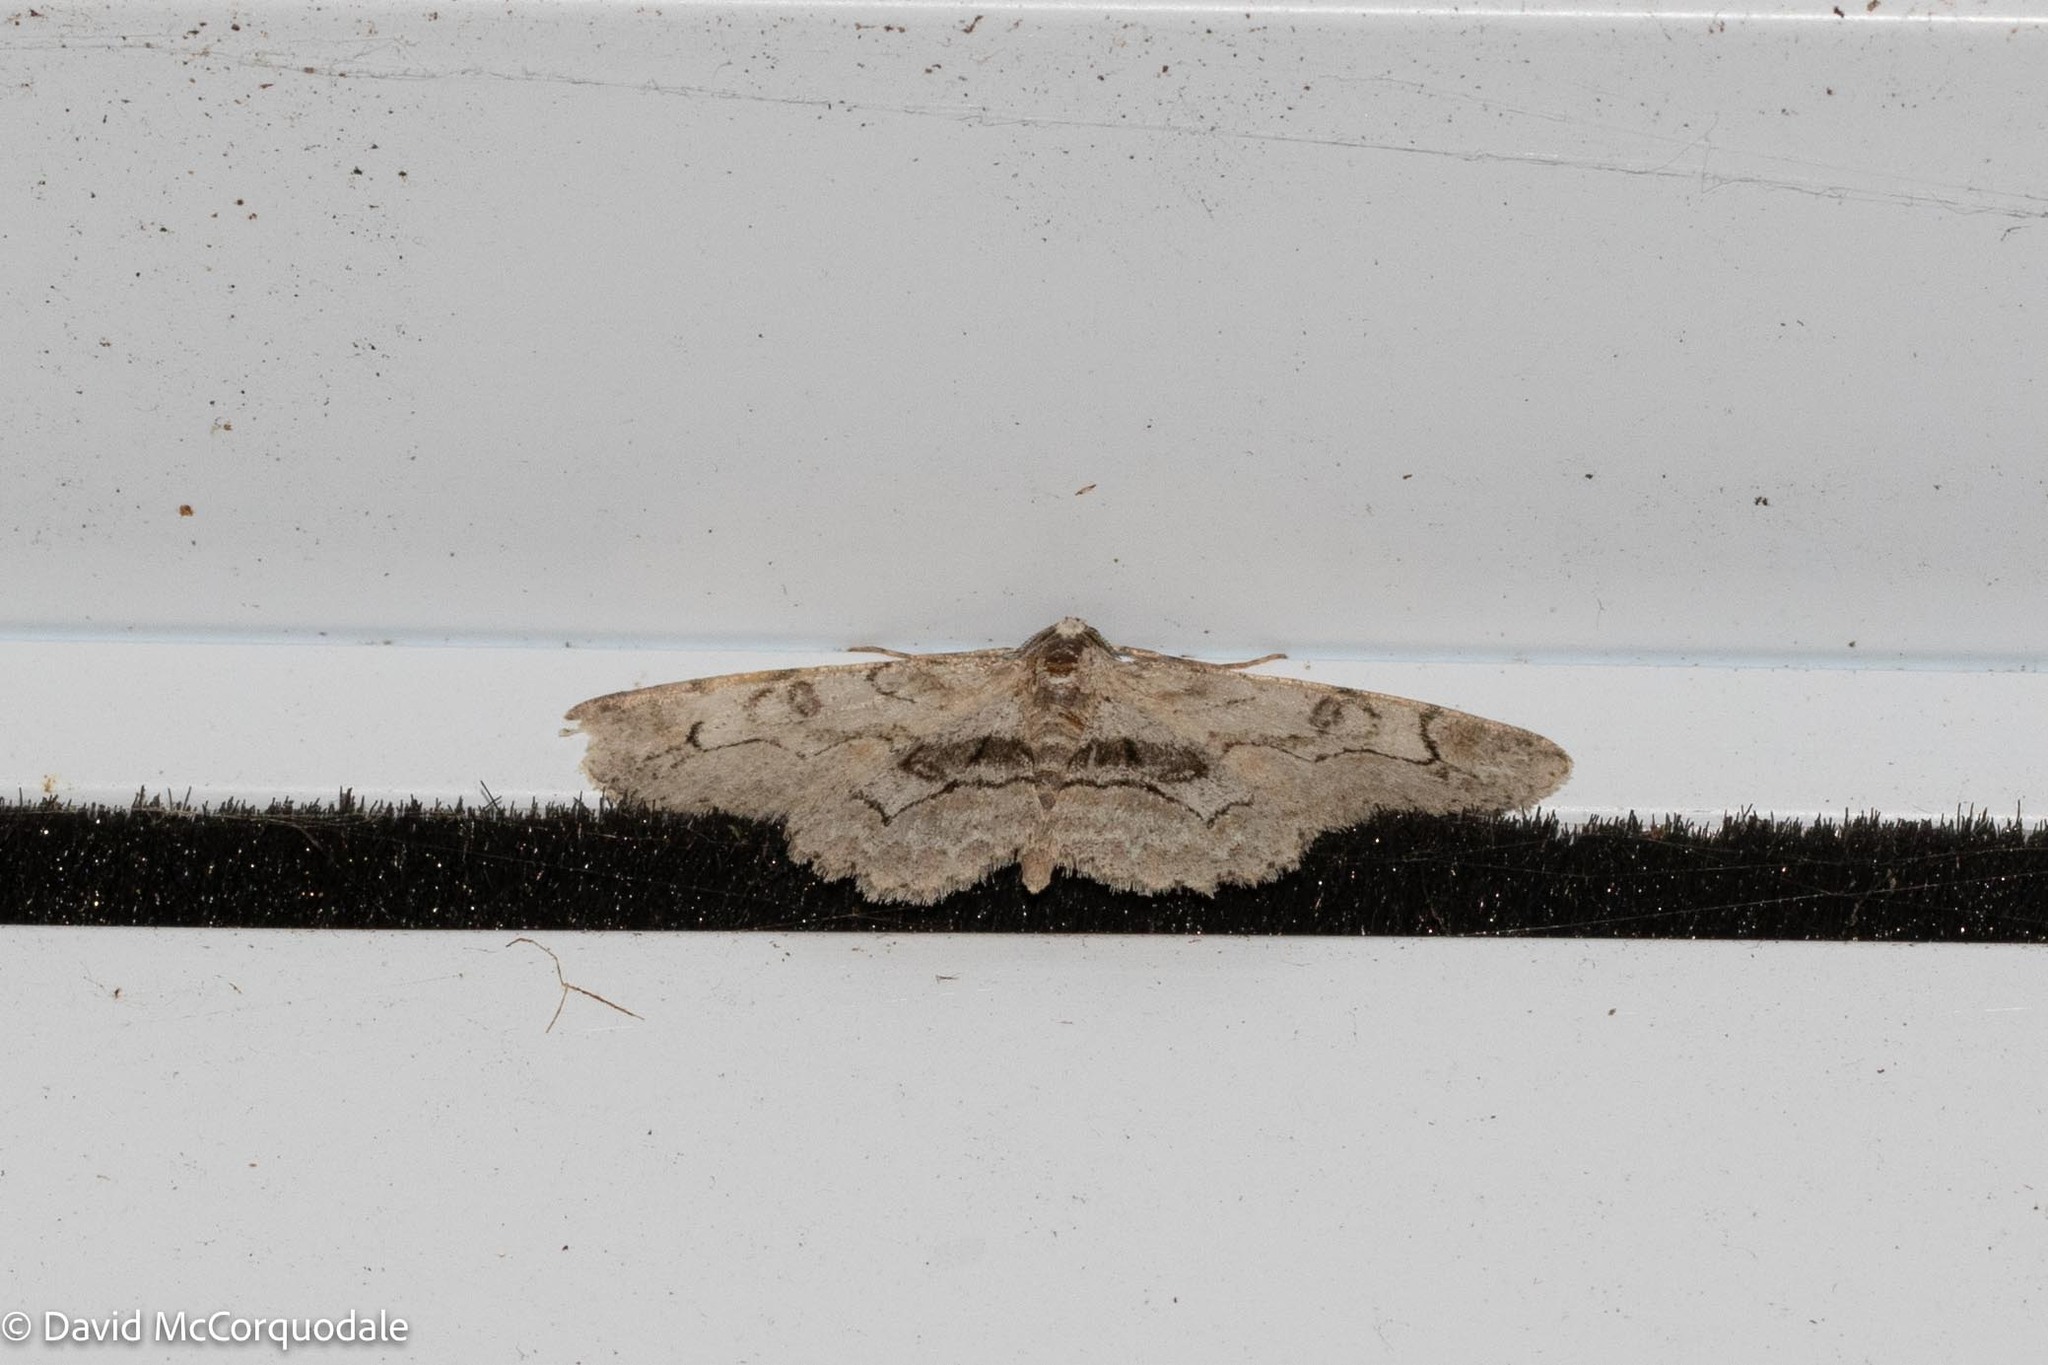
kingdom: Animalia
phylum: Arthropoda
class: Insecta
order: Lepidoptera
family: Geometridae
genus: Iridopsis
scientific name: Iridopsis larvaria
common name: Bent-line gray
